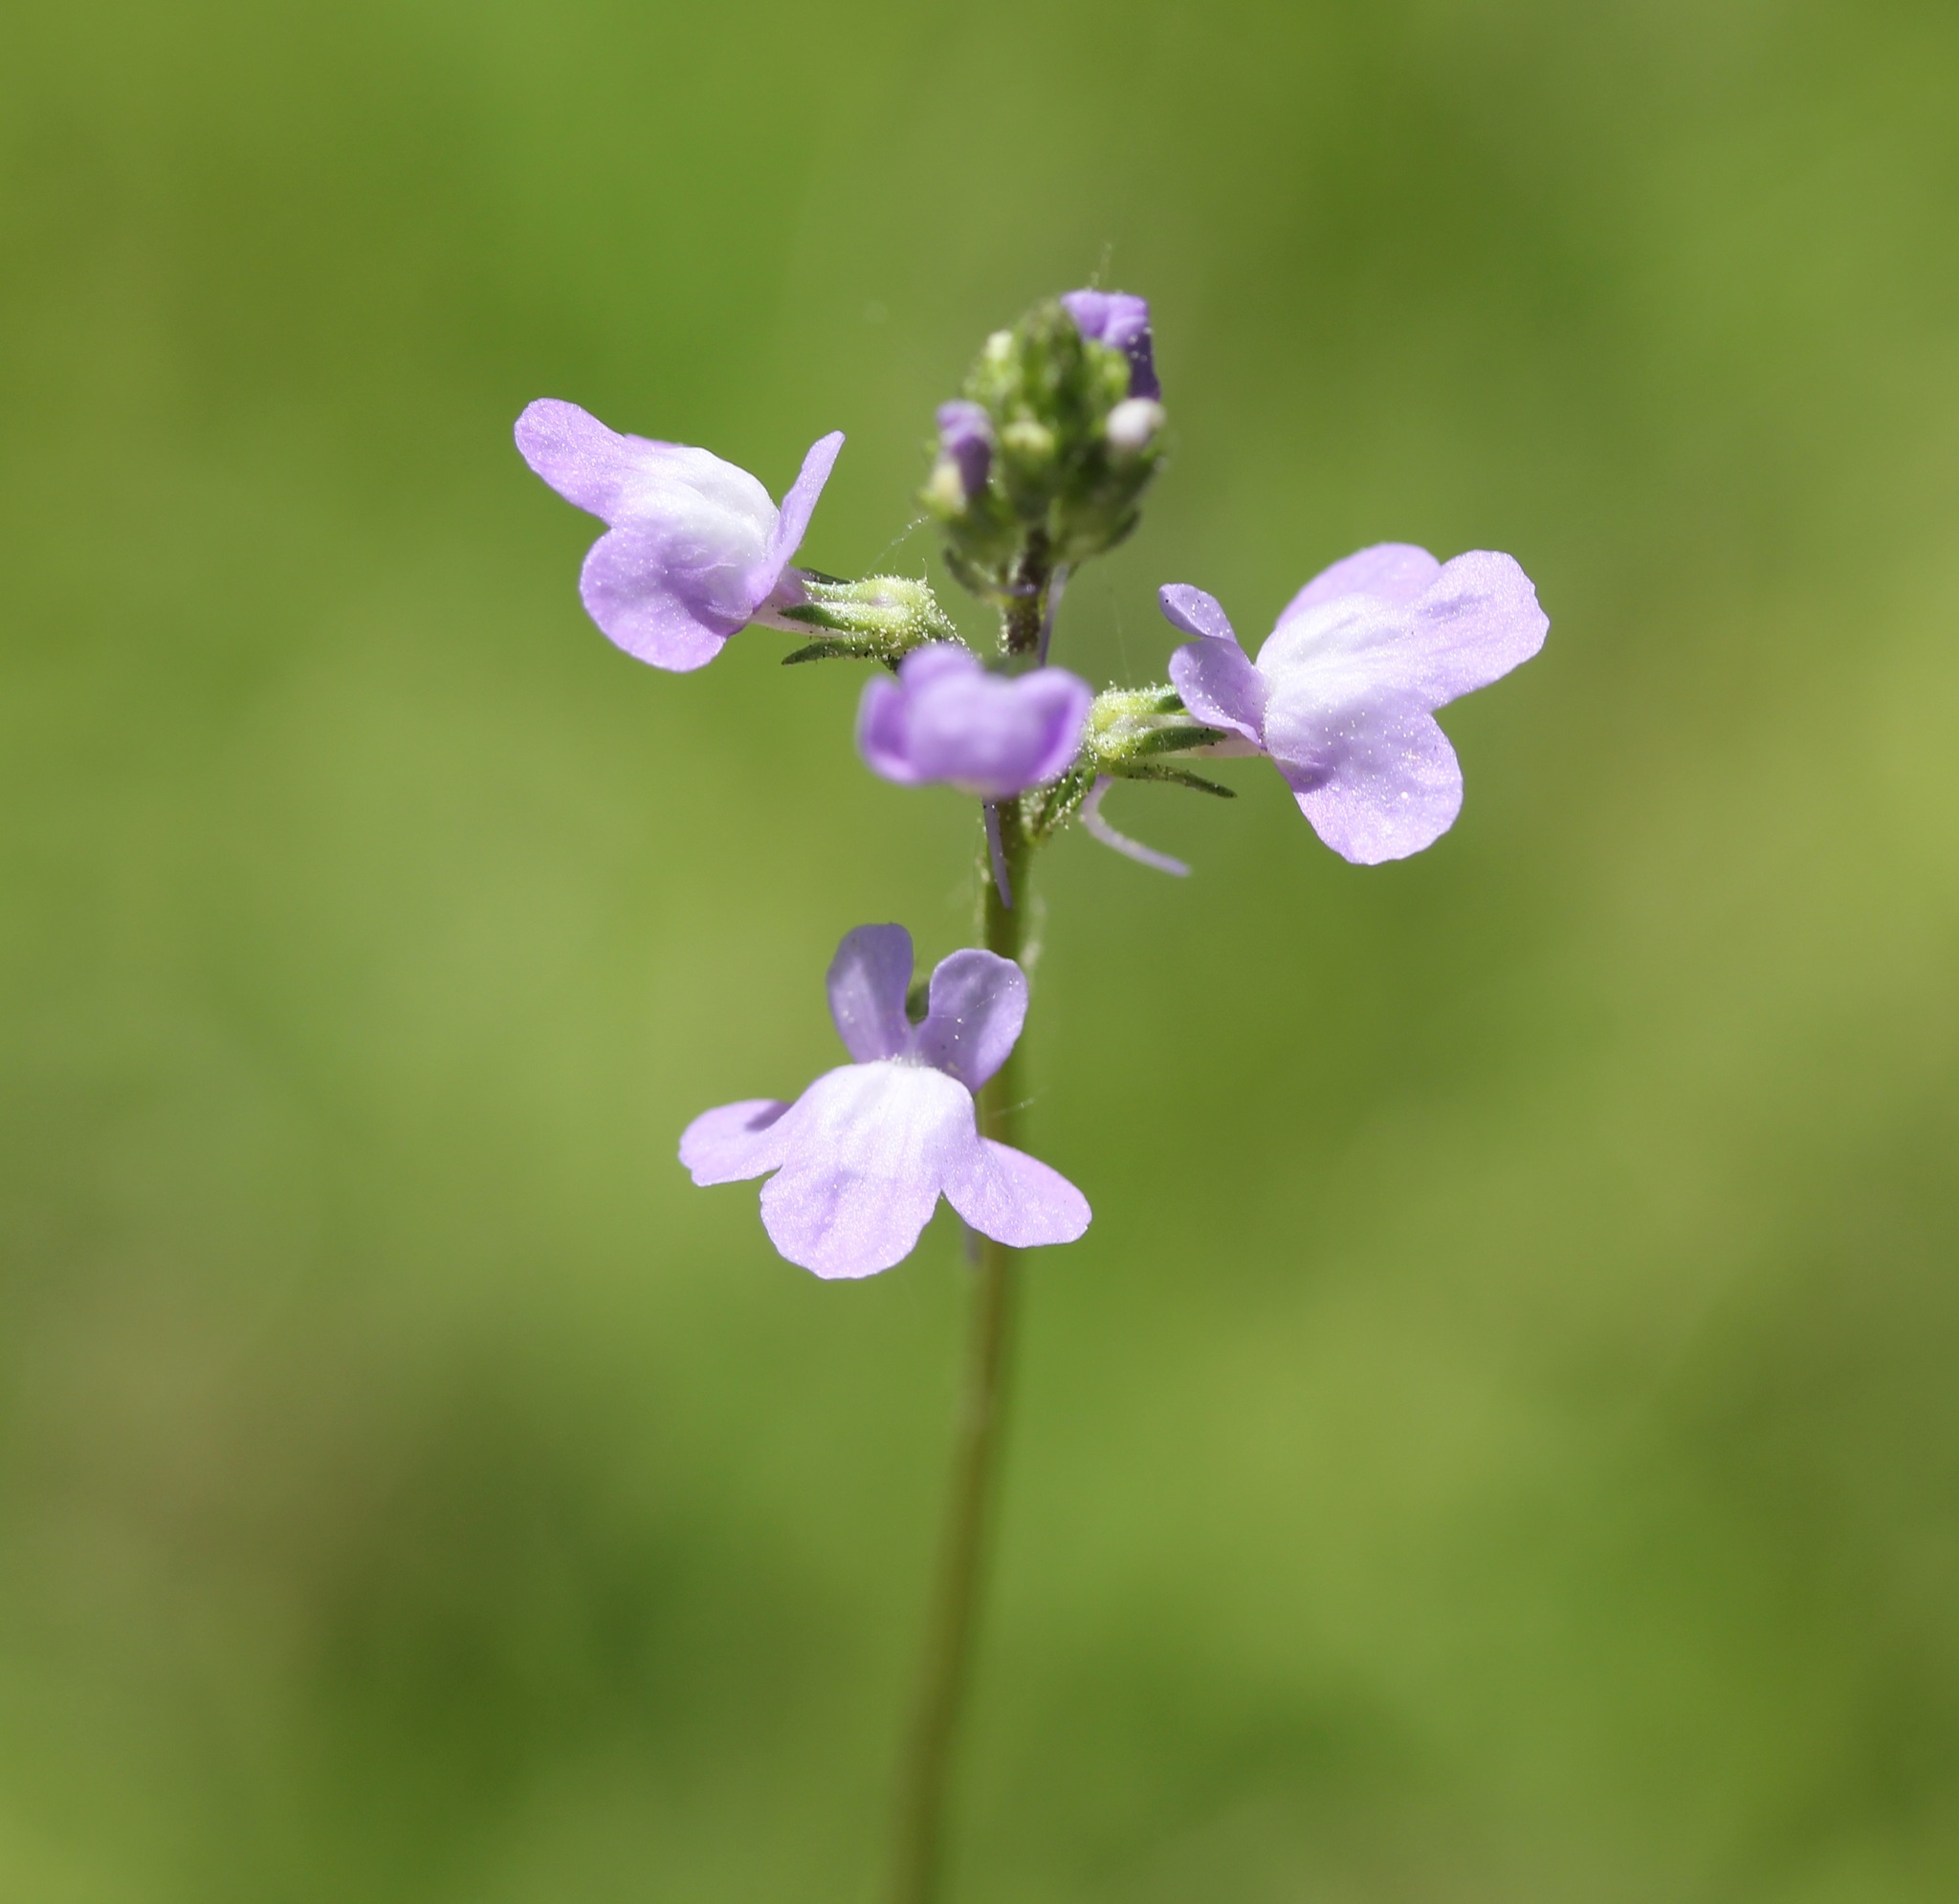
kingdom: Plantae
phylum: Tracheophyta
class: Magnoliopsida
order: Lamiales
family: Plantaginaceae
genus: Nuttallanthus
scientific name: Nuttallanthus canadensis
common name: Blue toadflax
